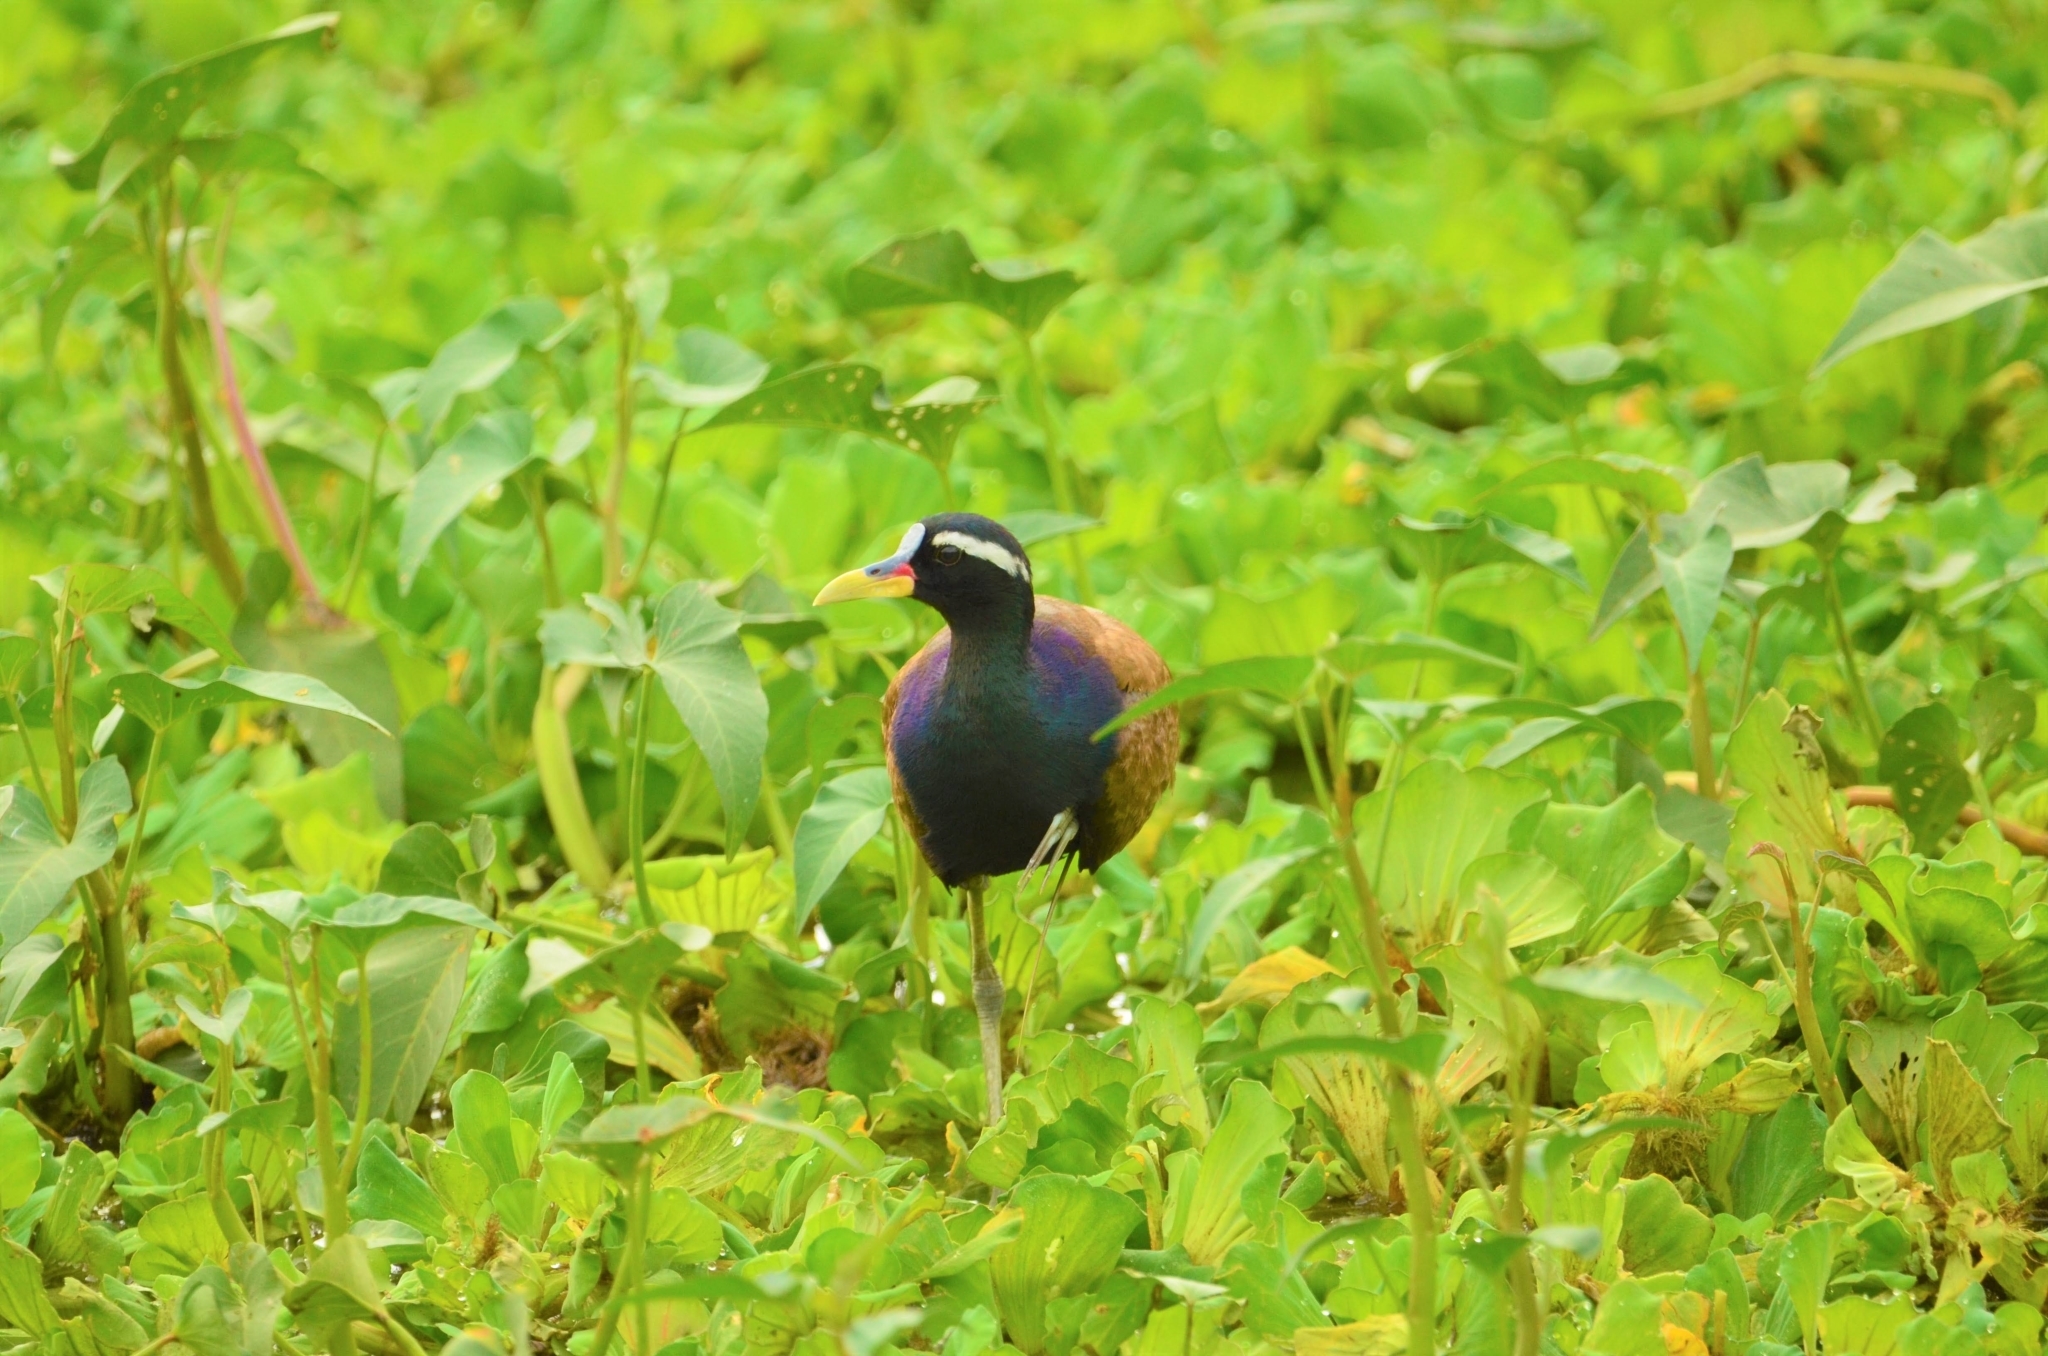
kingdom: Animalia
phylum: Chordata
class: Aves
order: Charadriiformes
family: Jacanidae
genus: Metopidius
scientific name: Metopidius indicus
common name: Bronze-winged jacana
